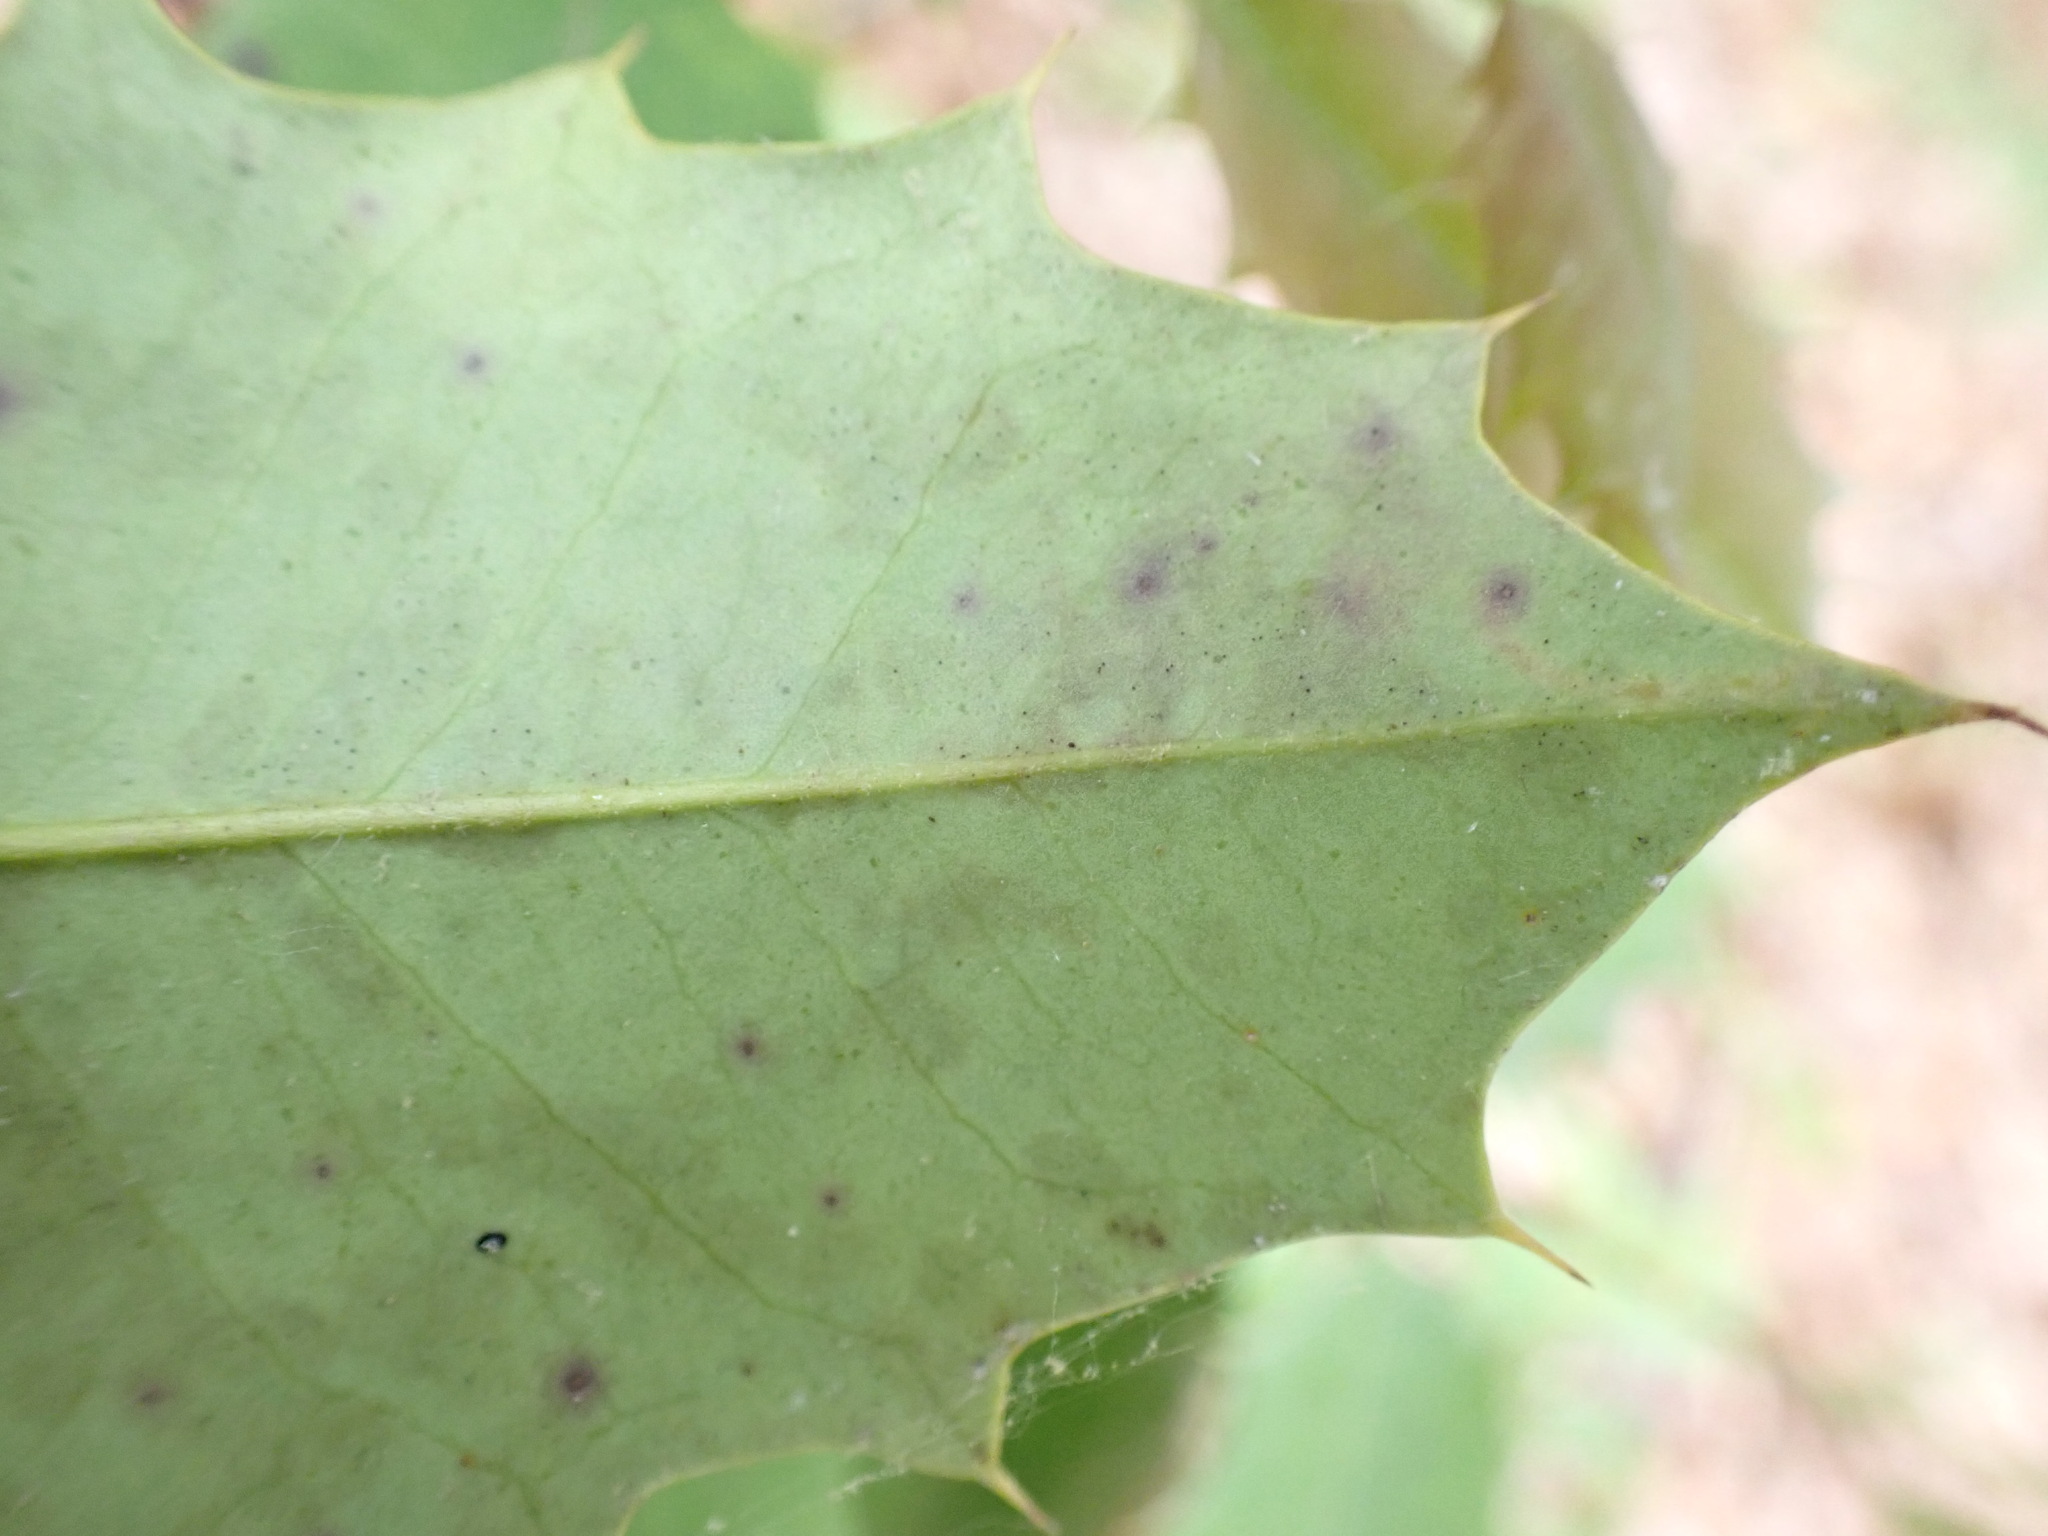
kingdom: Animalia
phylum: Arthropoda
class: Insecta
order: Diptera
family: Agromyzidae
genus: Phytomyza
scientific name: Phytomyza ilicicola
